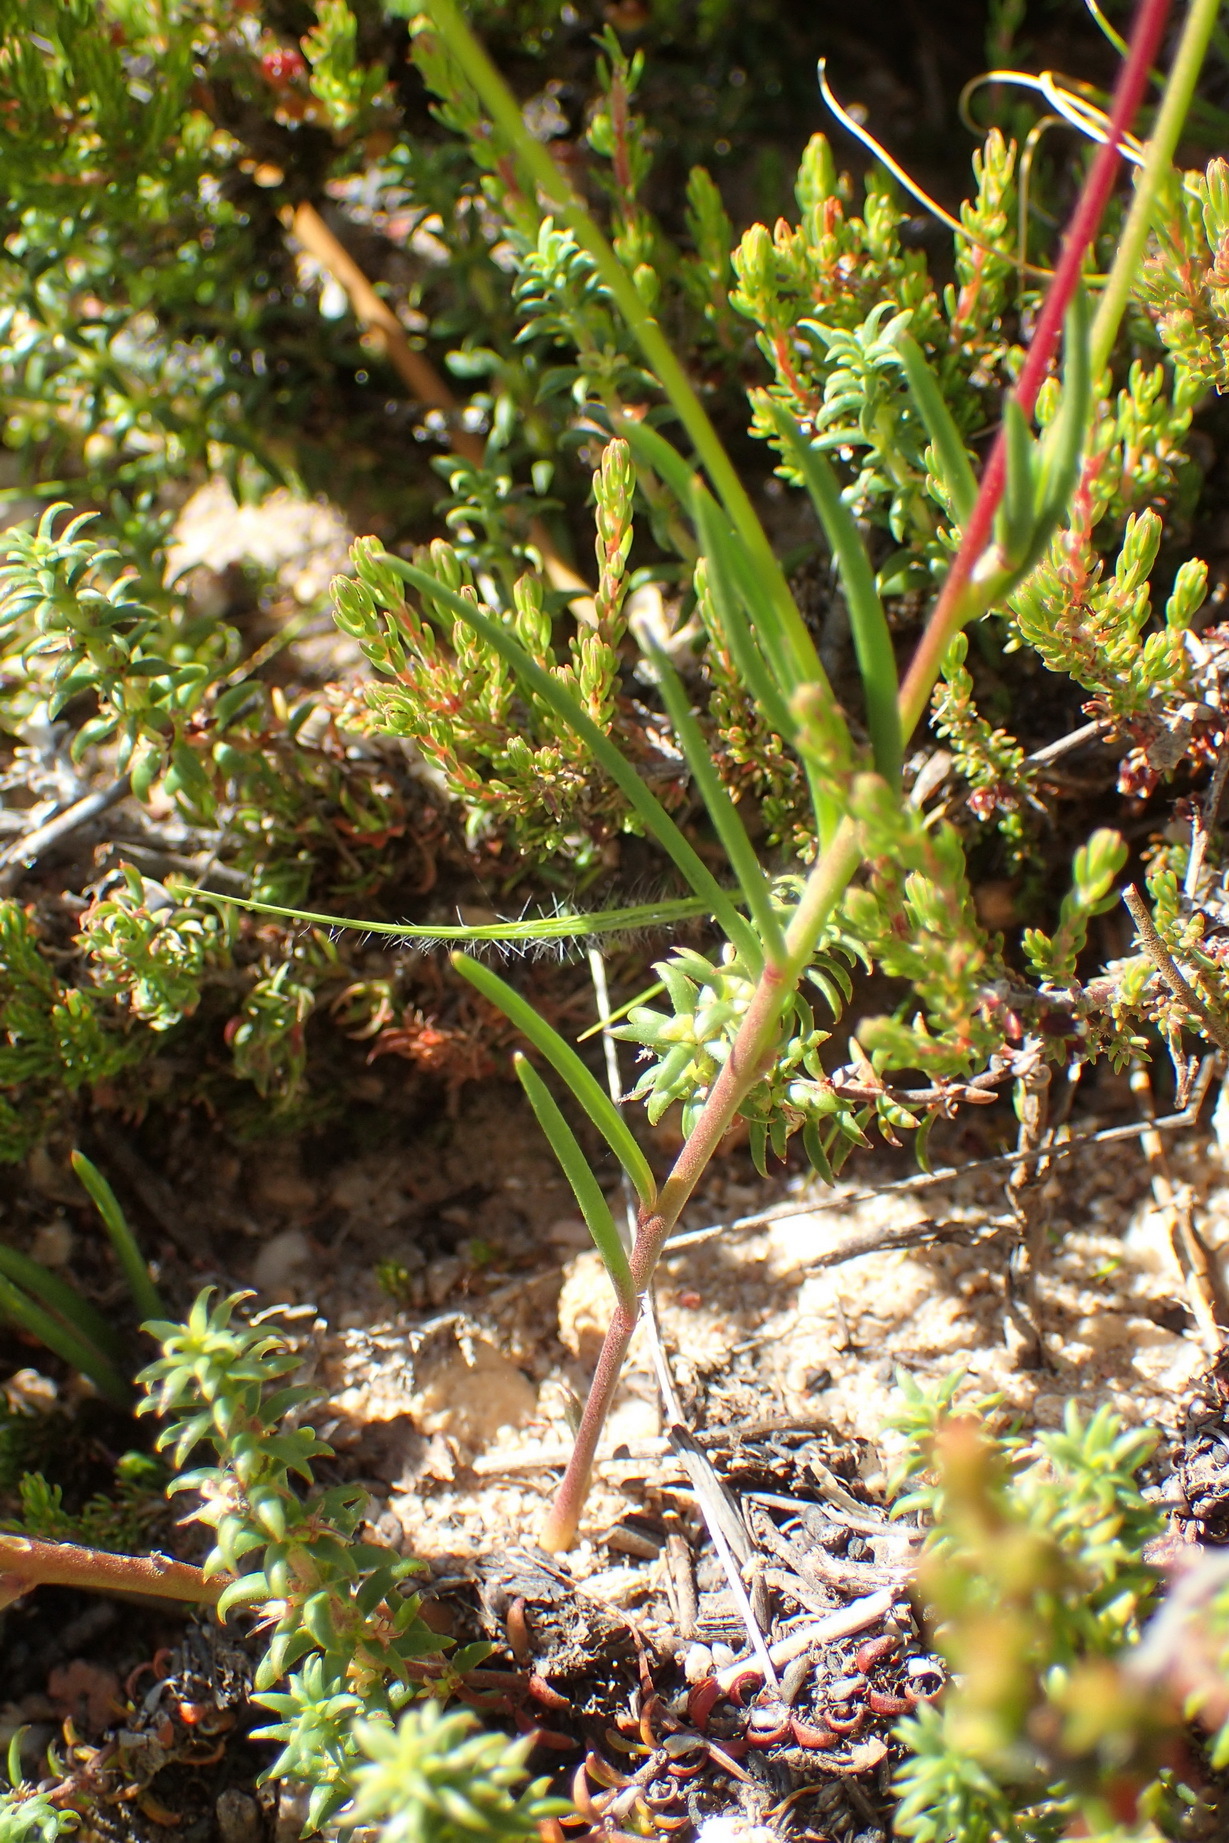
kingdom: Plantae
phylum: Tracheophyta
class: Magnoliopsida
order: Caryophyllales
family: Caryophyllaceae
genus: Cerastium
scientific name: Cerastium capense
